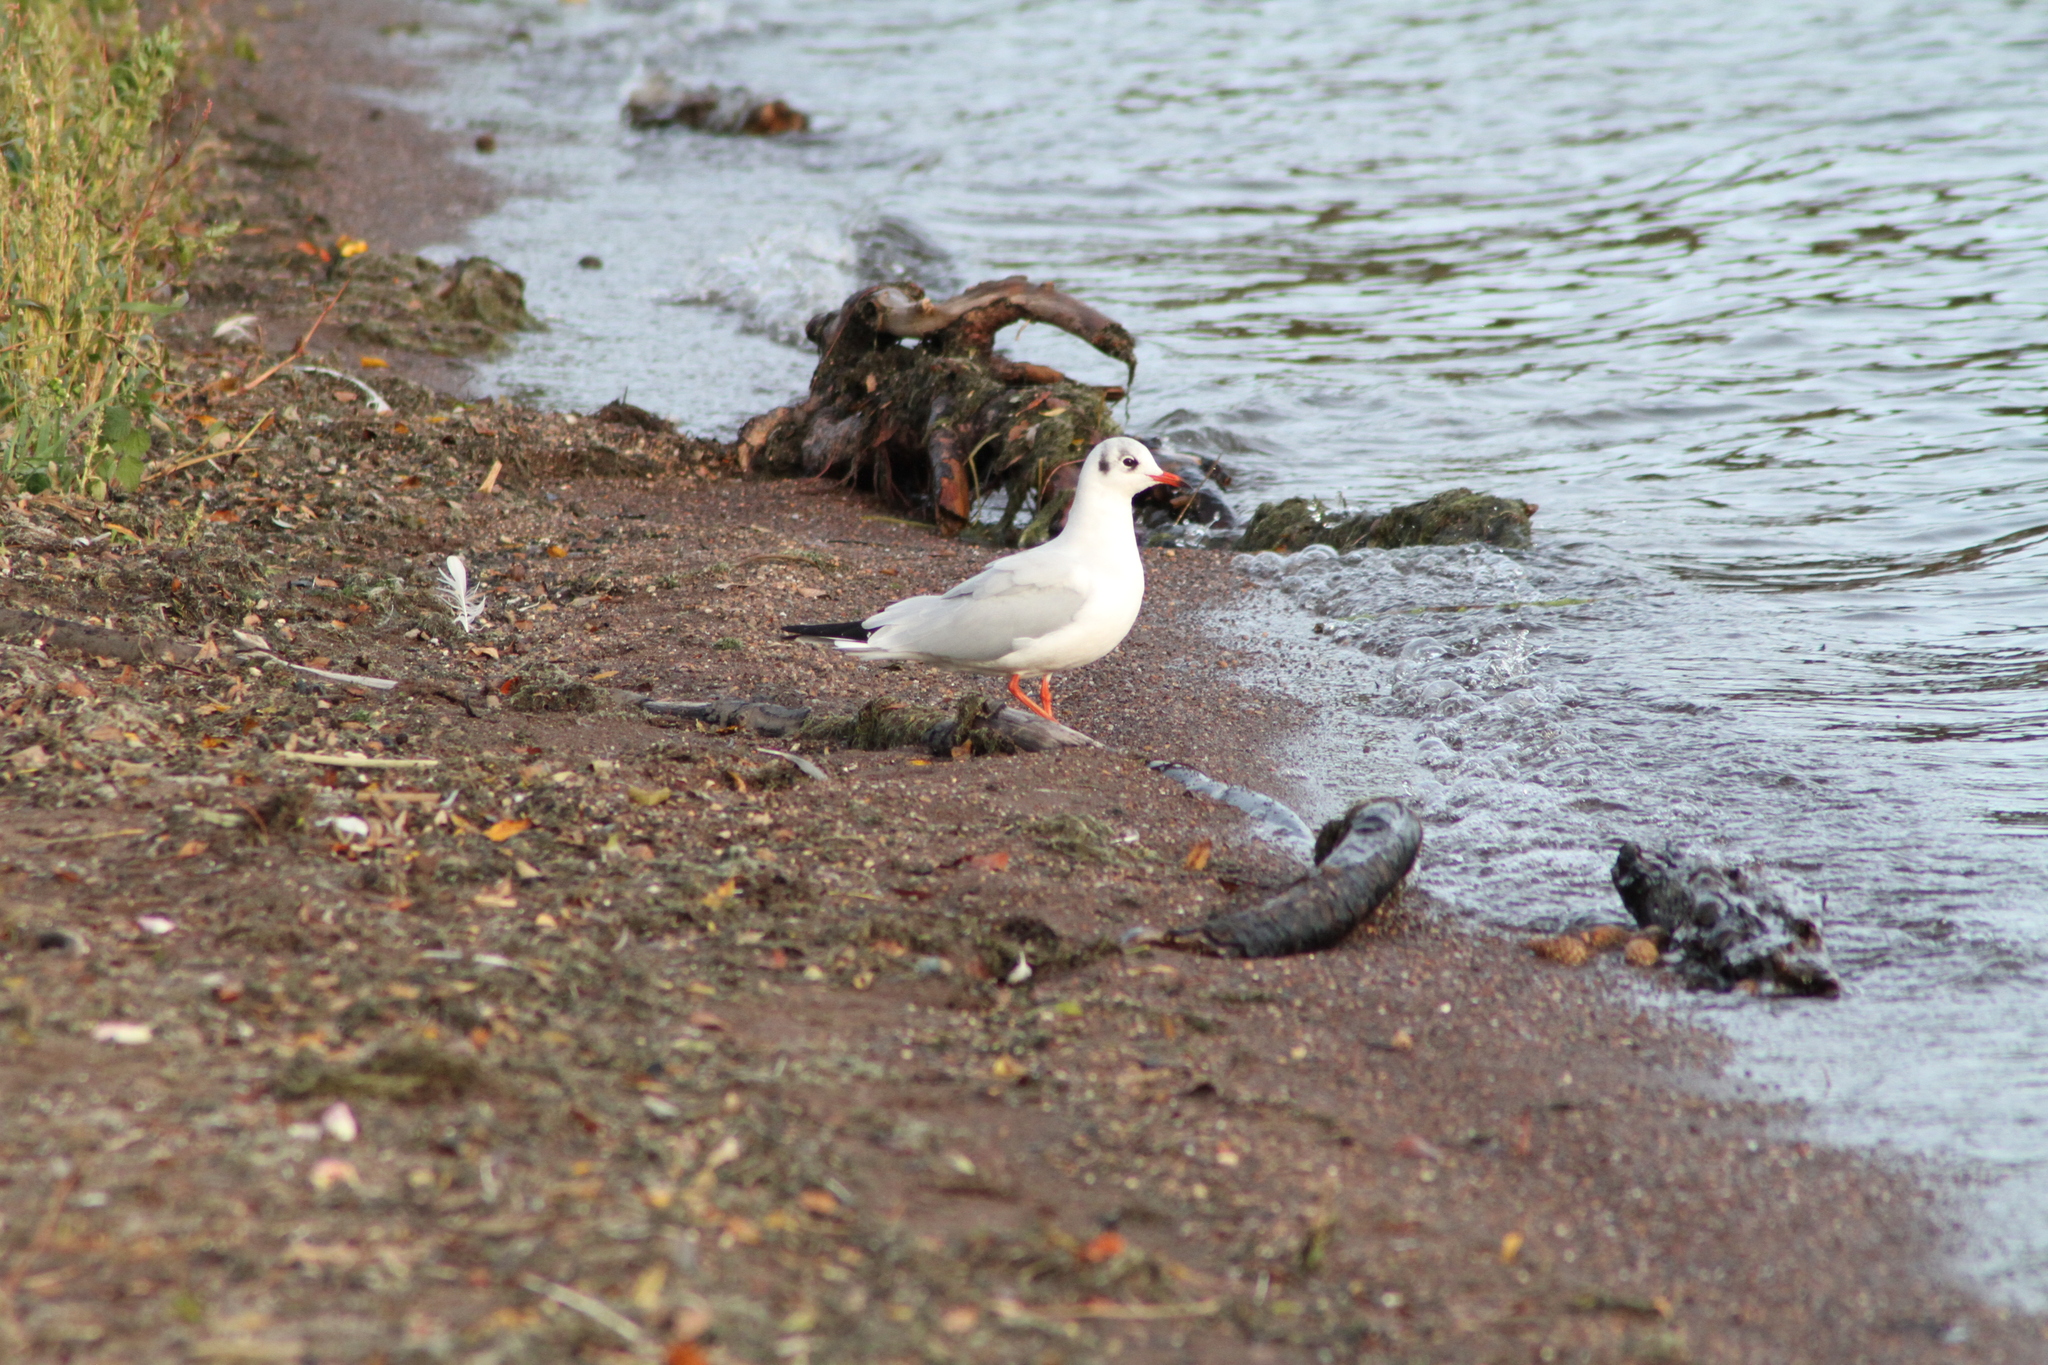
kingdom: Animalia
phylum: Chordata
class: Aves
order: Charadriiformes
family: Laridae
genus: Chroicocephalus
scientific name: Chroicocephalus ridibundus
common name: Black-headed gull
